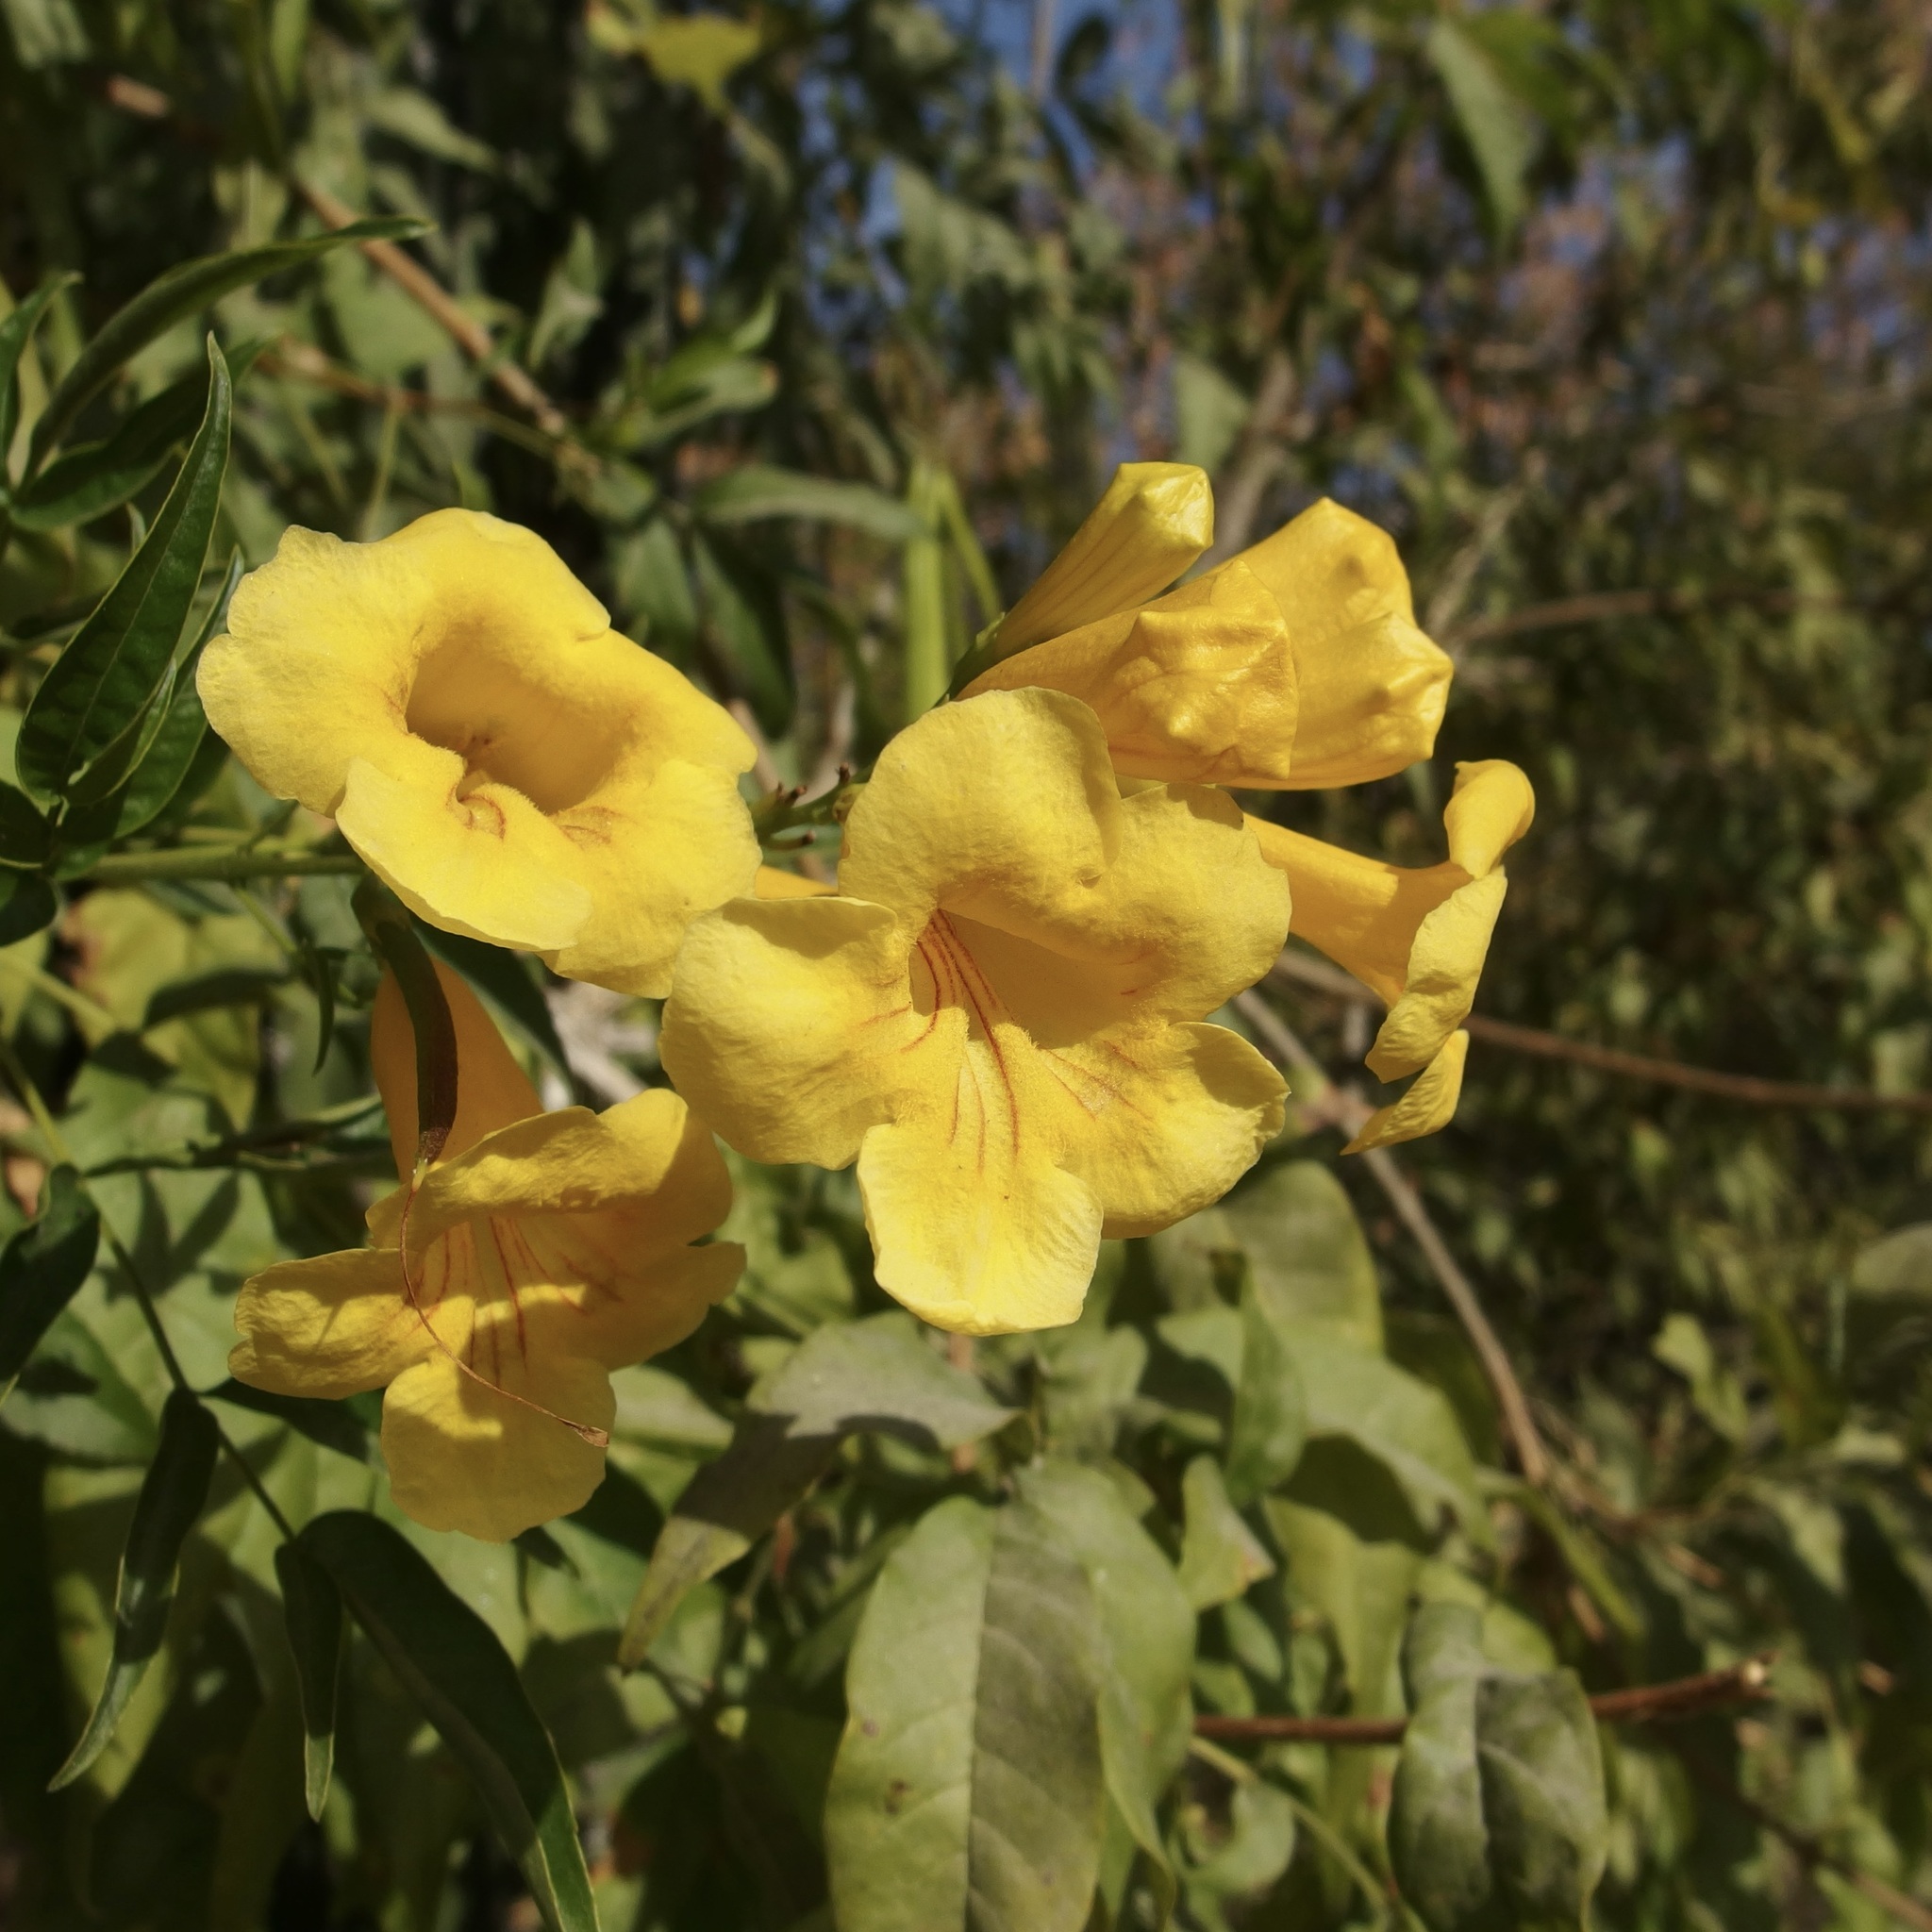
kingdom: Plantae
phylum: Tracheophyta
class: Magnoliopsida
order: Lamiales
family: Bignoniaceae
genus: Tecoma
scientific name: Tecoma stans
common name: Yellow trumpetbush
